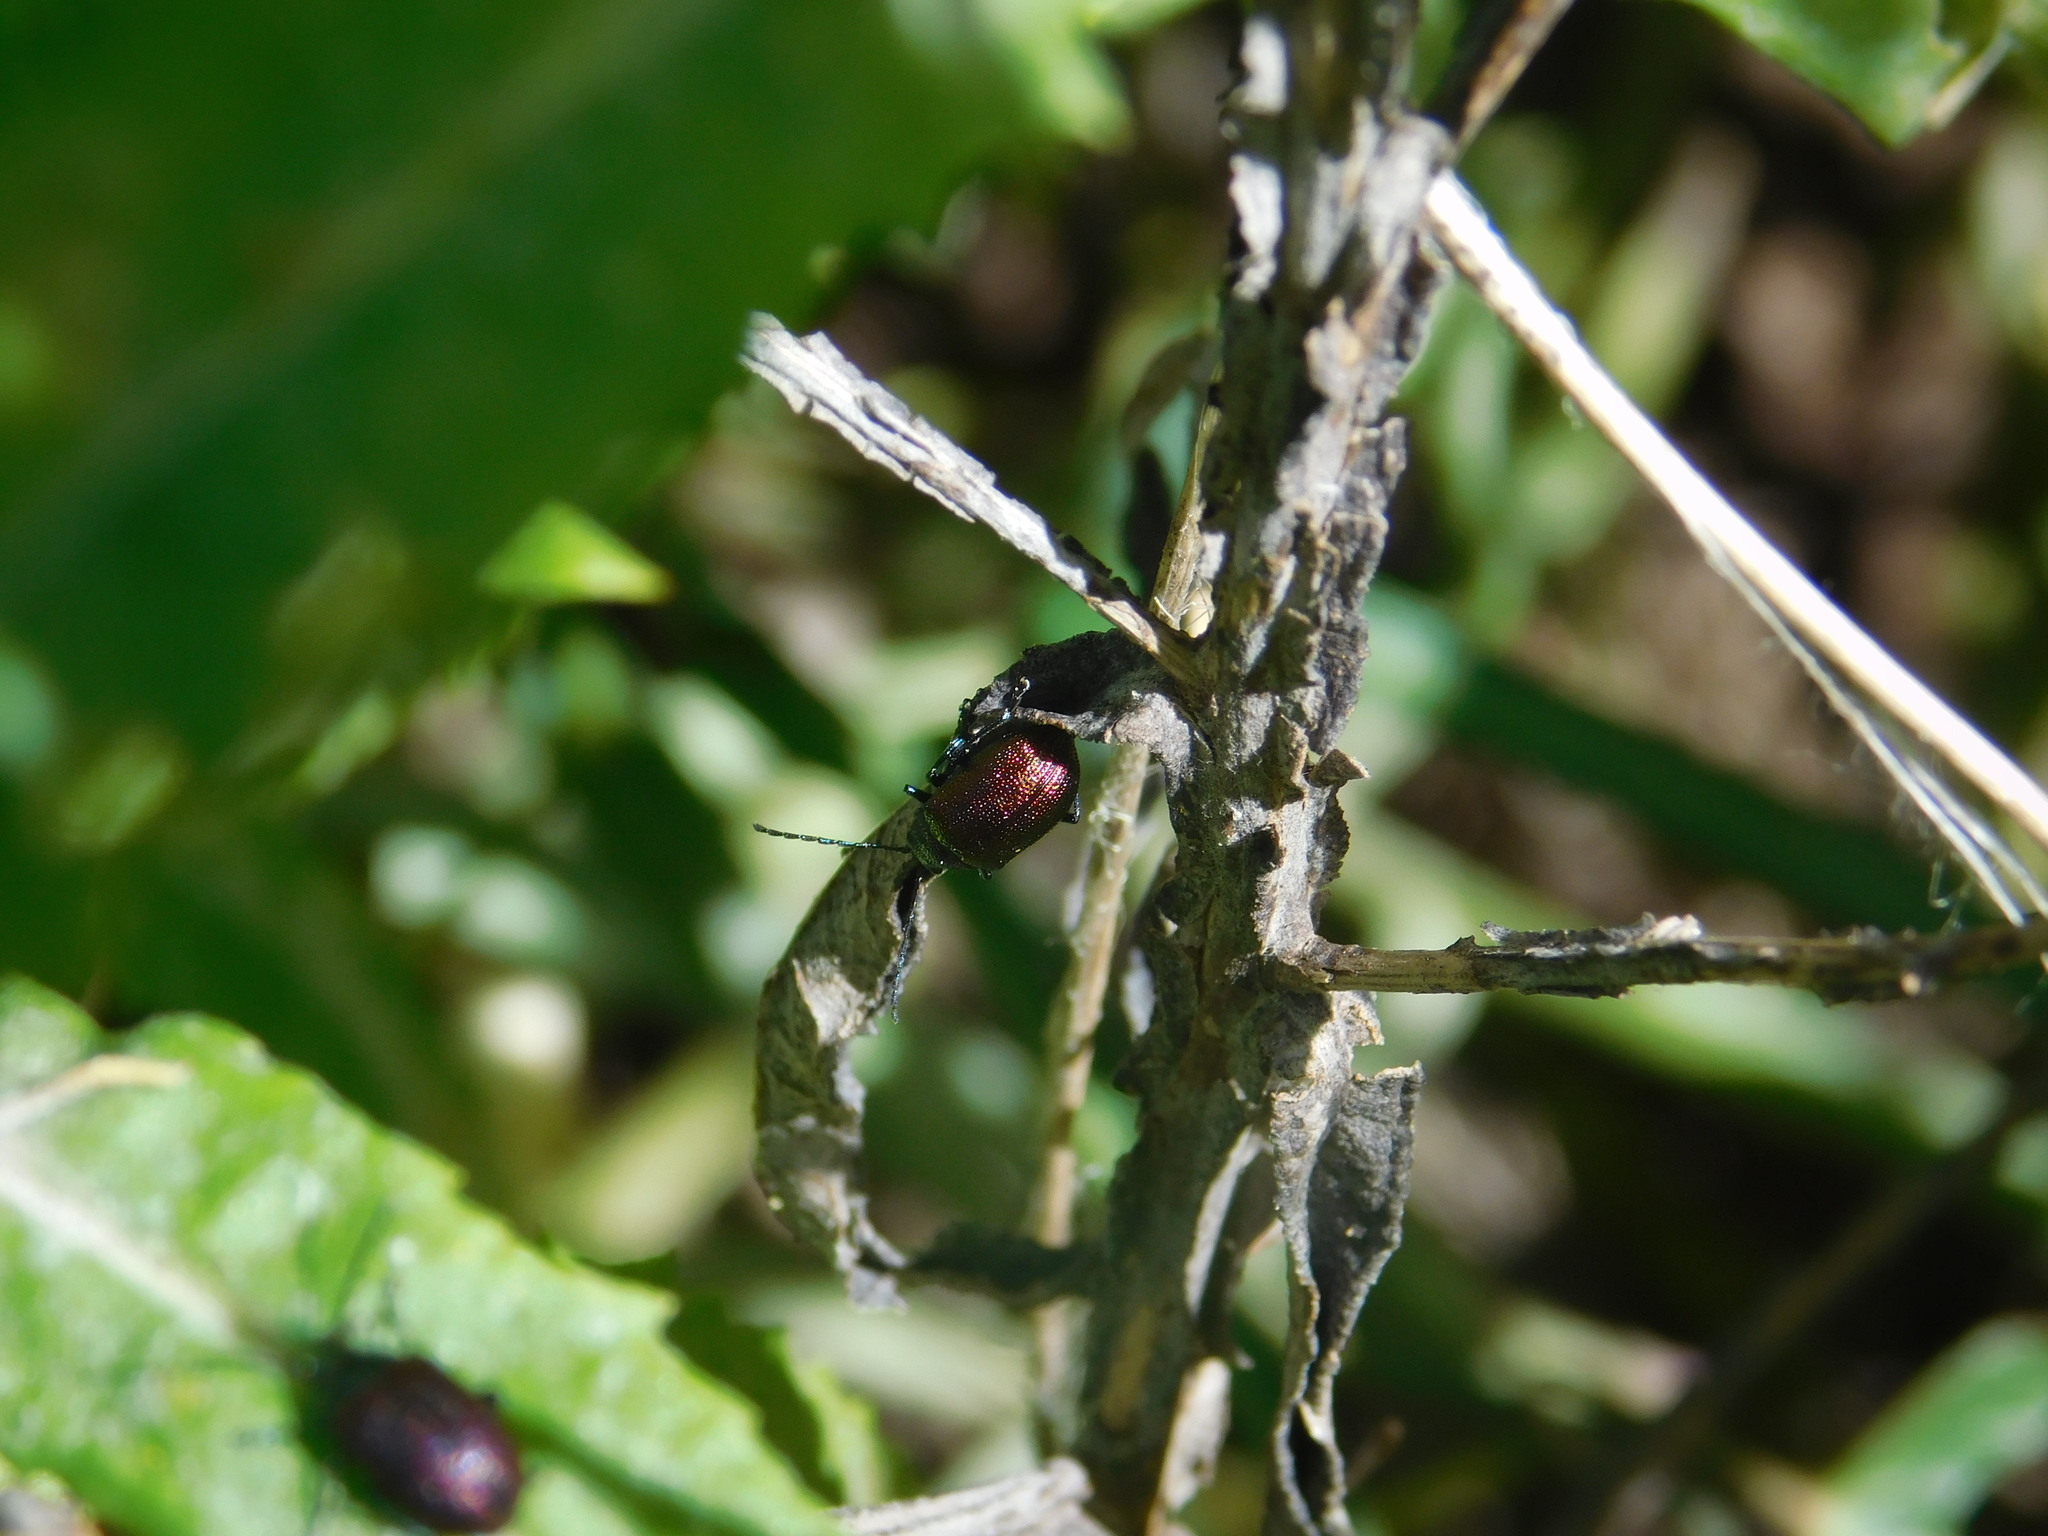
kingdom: Animalia
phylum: Arthropoda
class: Insecta
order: Coleoptera
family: Chrysomelidae
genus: Freudeita
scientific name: Freudeita
